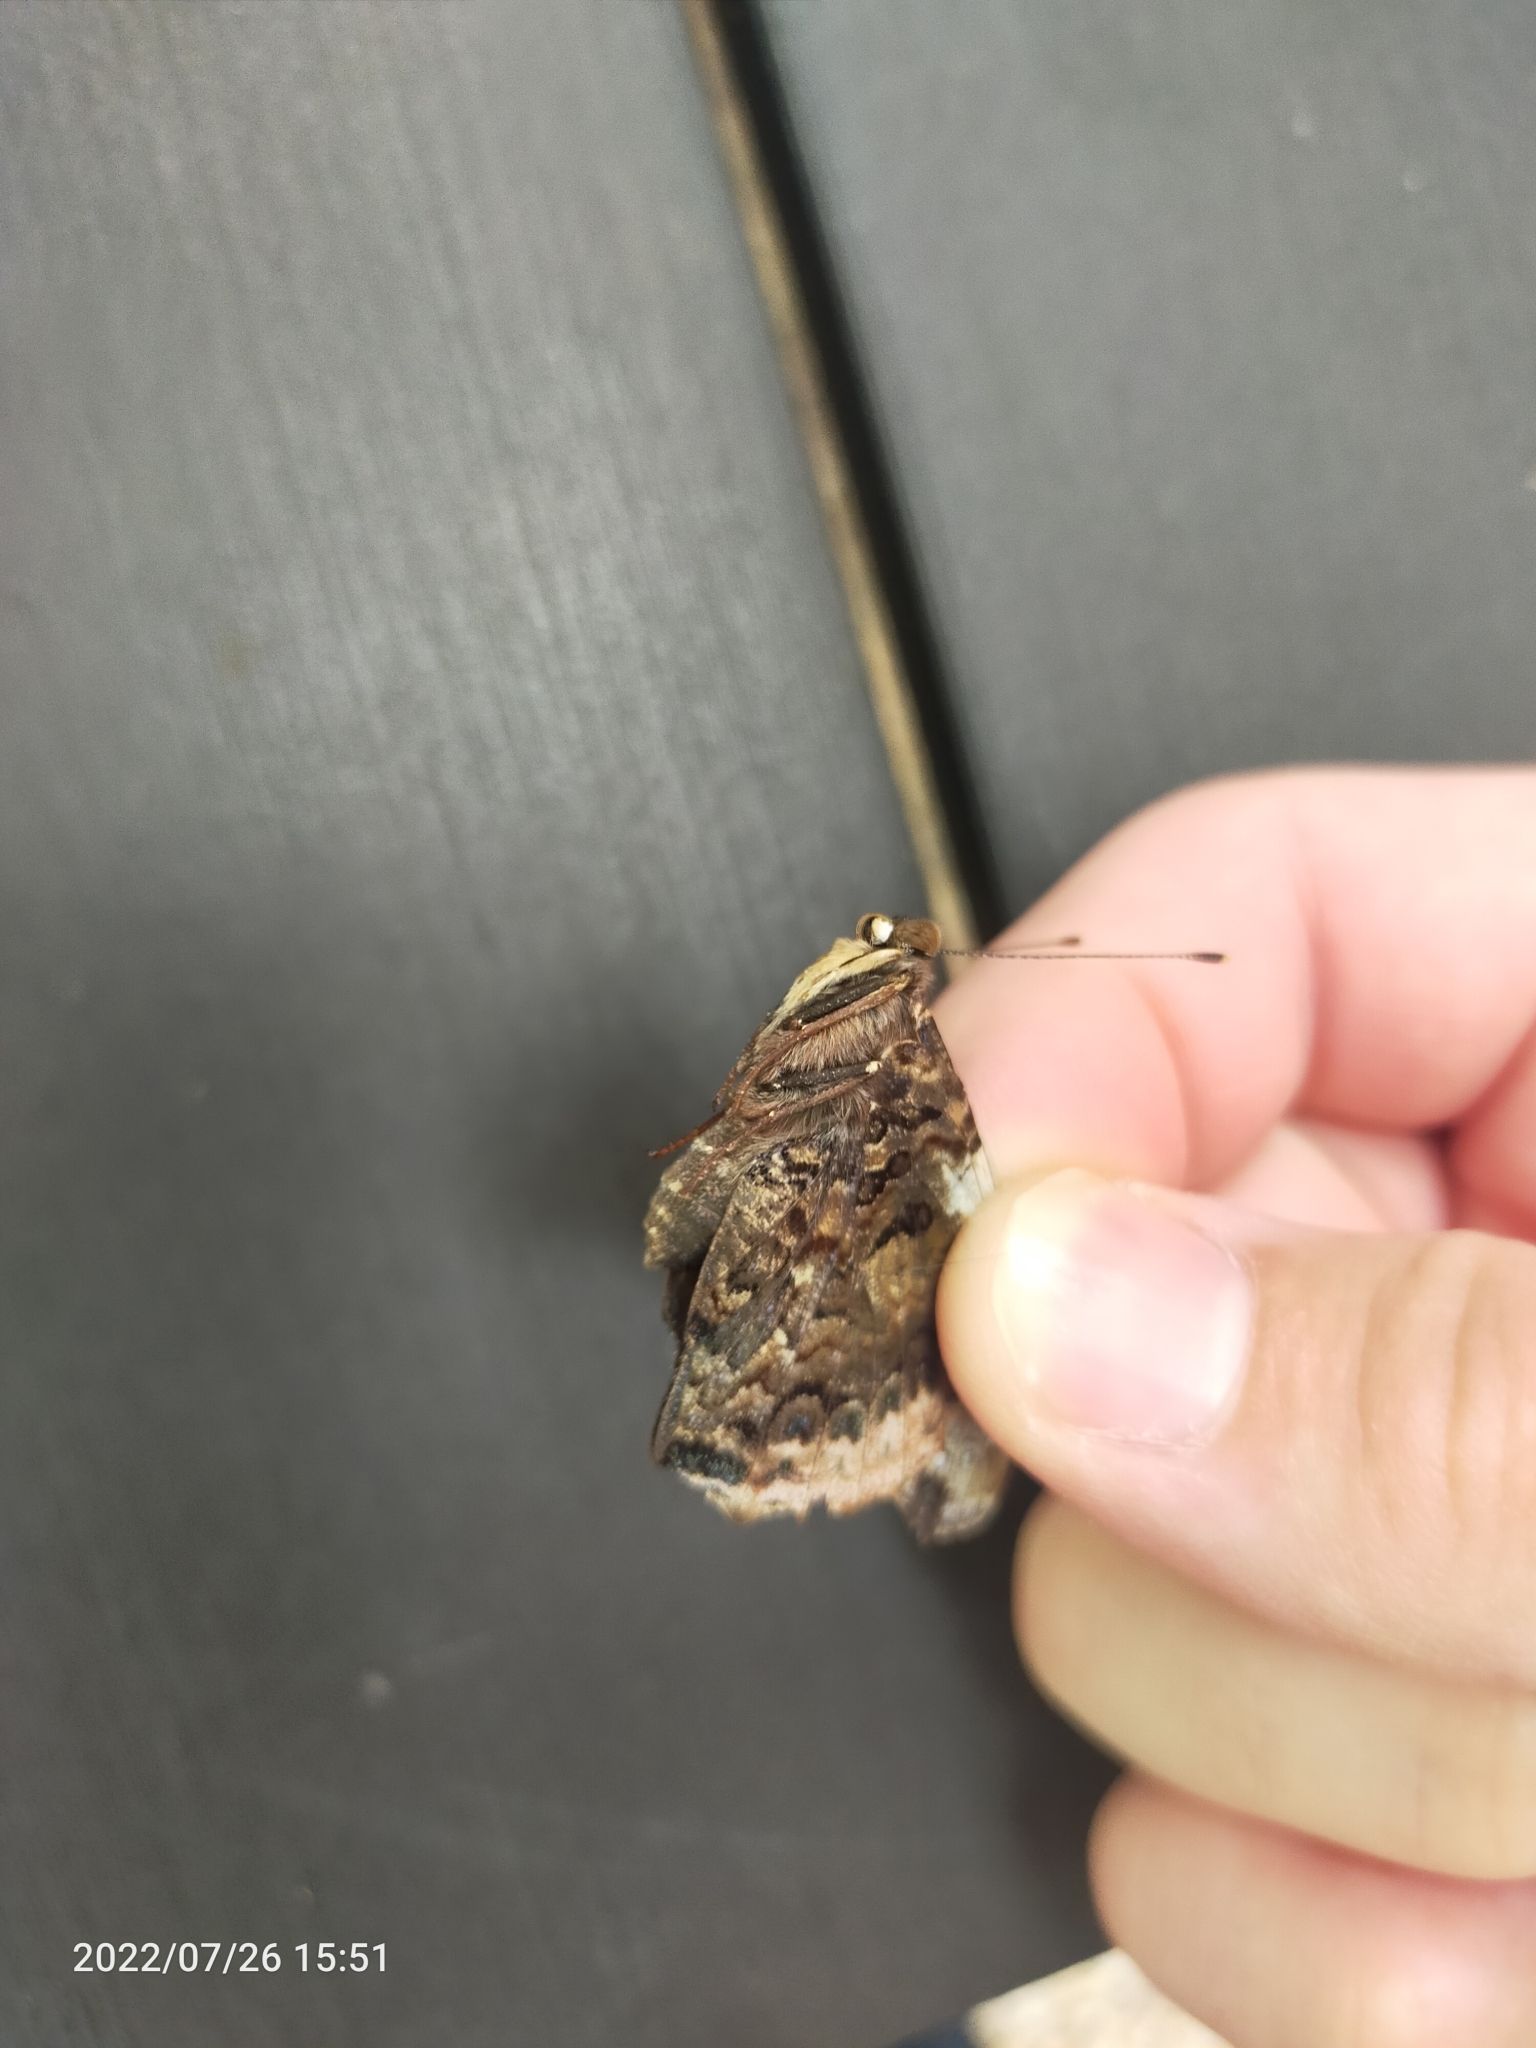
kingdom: Animalia
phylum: Arthropoda
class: Insecta
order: Lepidoptera
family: Nymphalidae
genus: Vanessa
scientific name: Vanessa atalanta
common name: Red admiral
